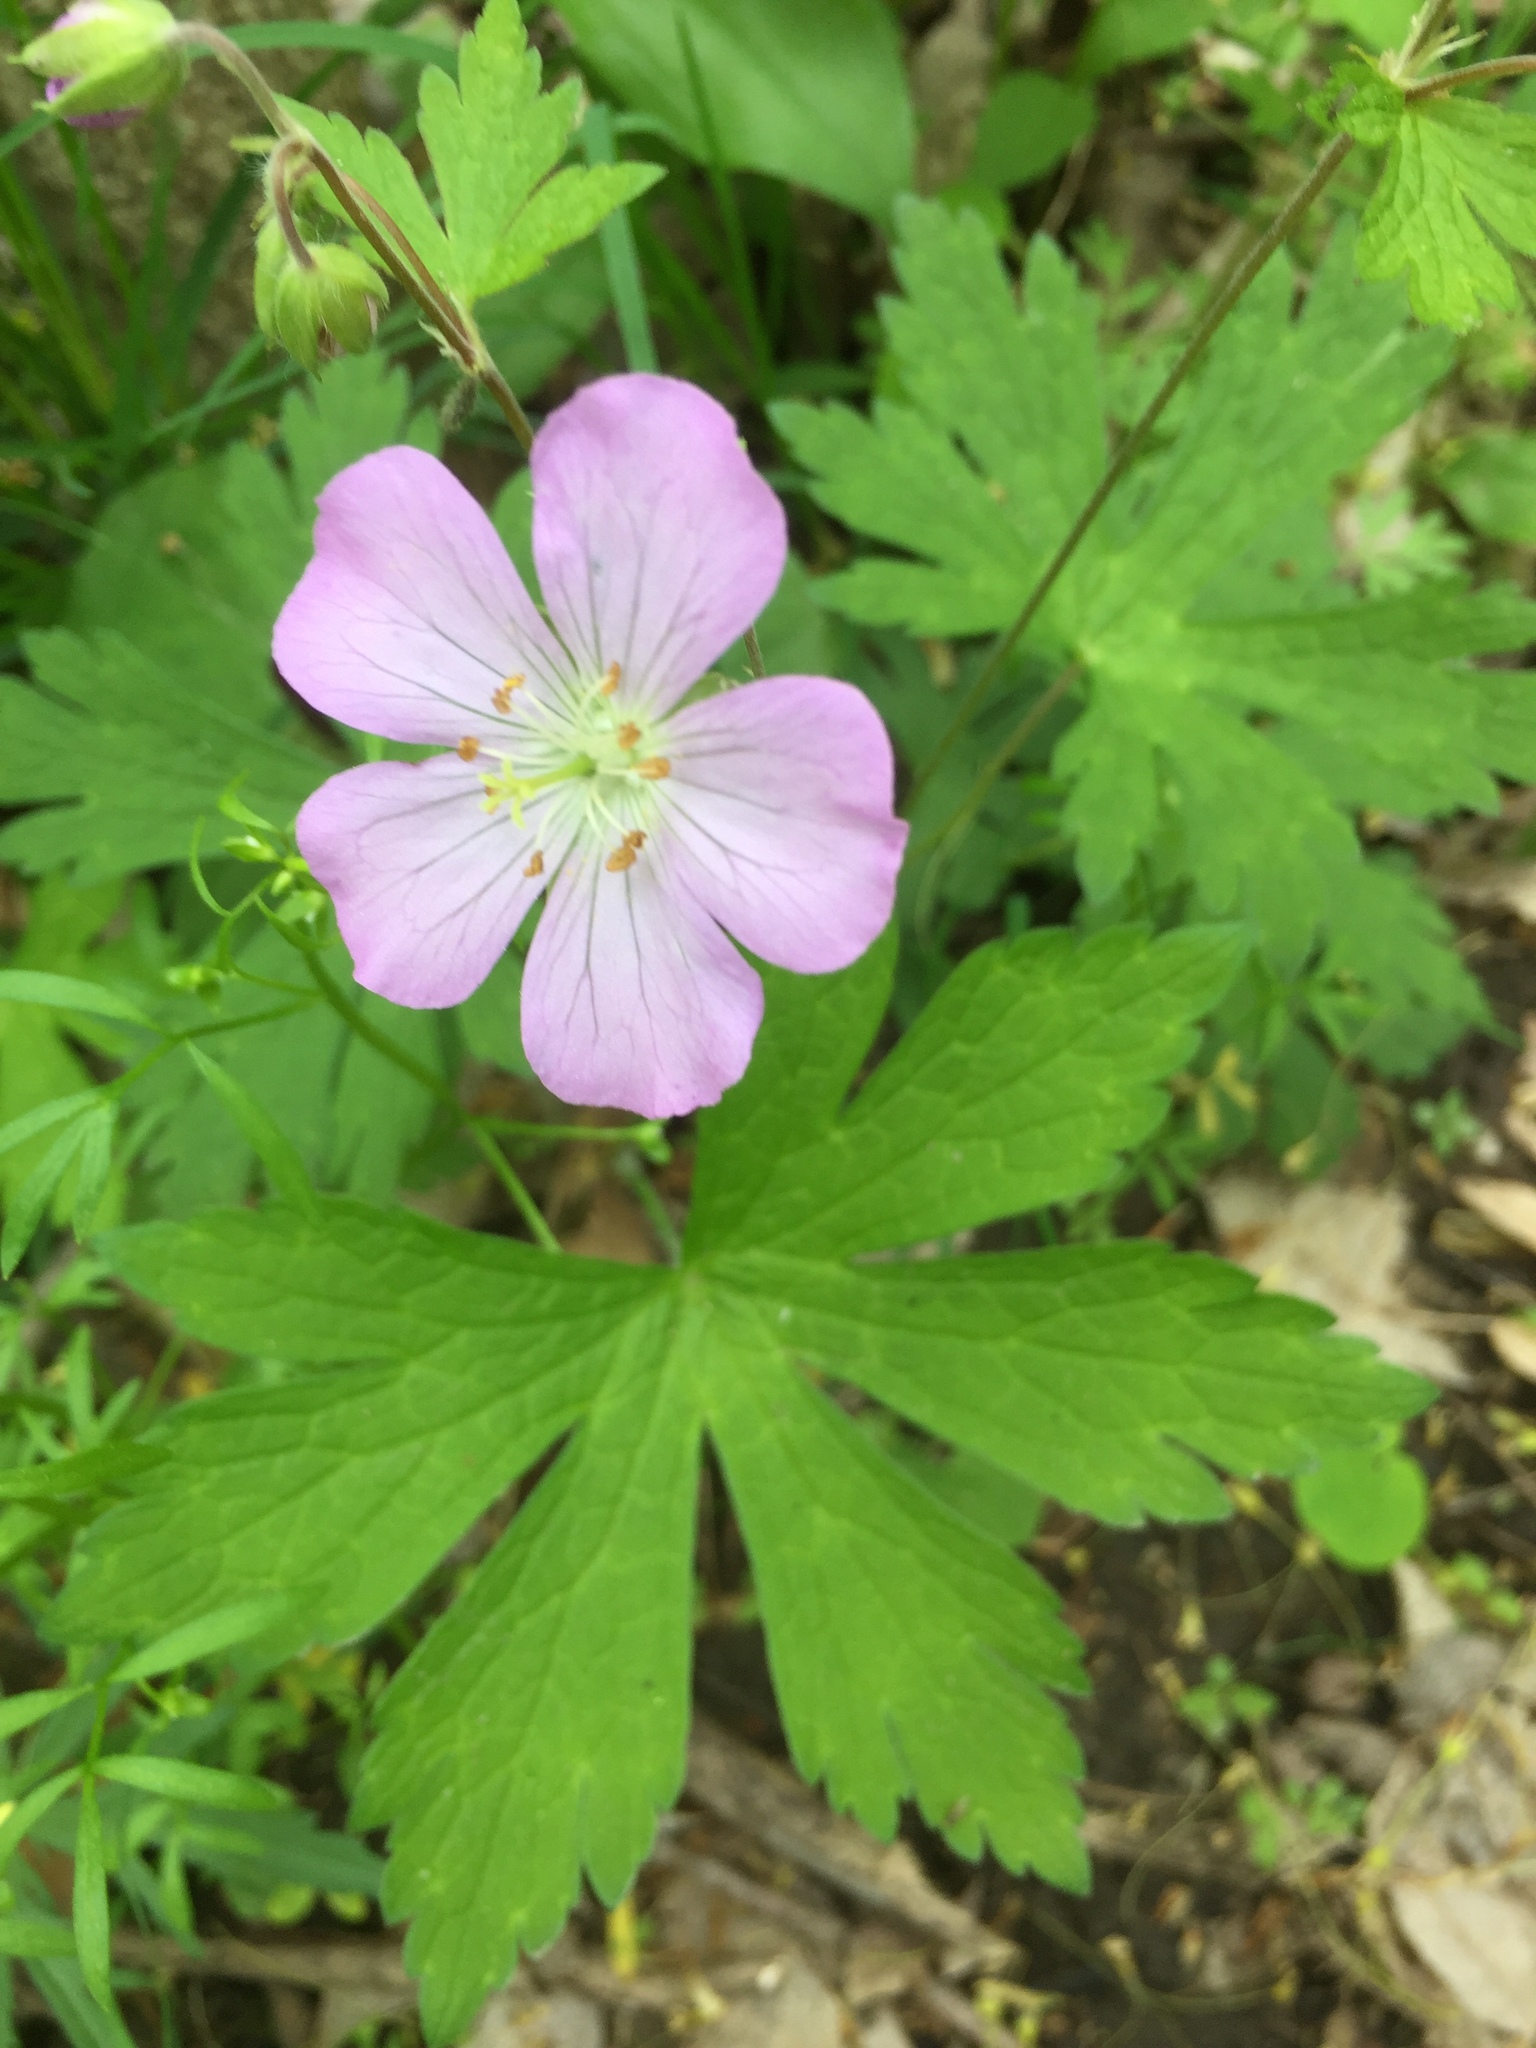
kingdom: Plantae
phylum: Tracheophyta
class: Magnoliopsida
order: Geraniales
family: Geraniaceae
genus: Geranium
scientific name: Geranium maculatum
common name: Spotted geranium
